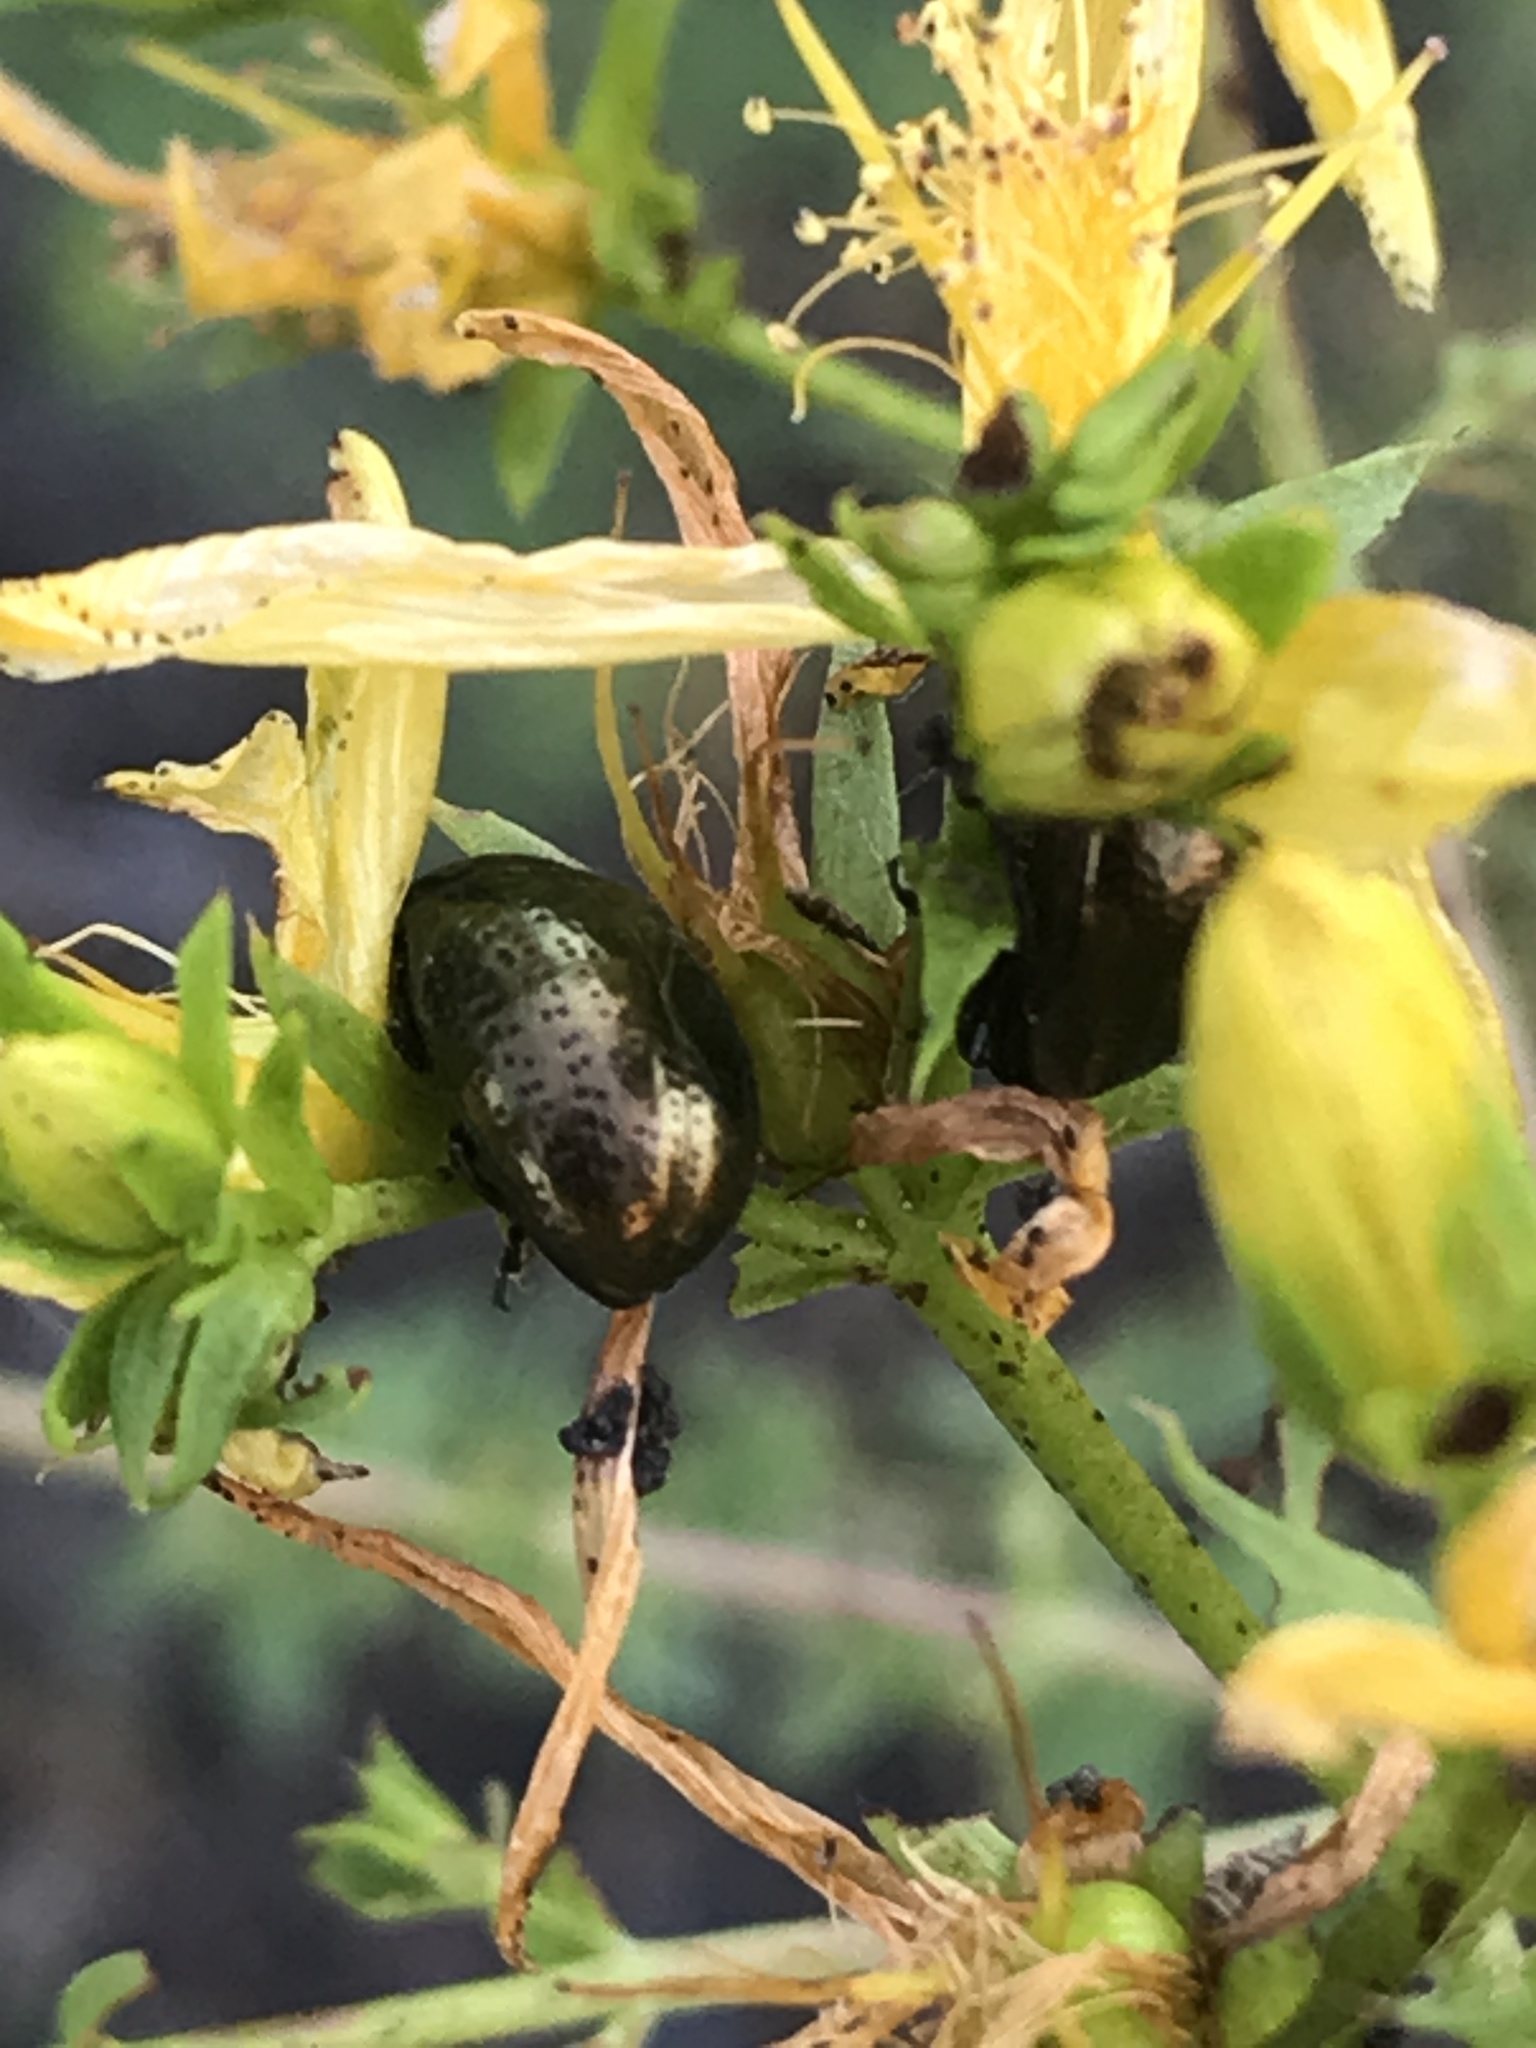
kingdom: Animalia
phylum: Arthropoda
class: Insecta
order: Coleoptera
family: Chrysomelidae
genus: Chrysolina
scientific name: Chrysolina hyperici
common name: St. johnswort beetle
